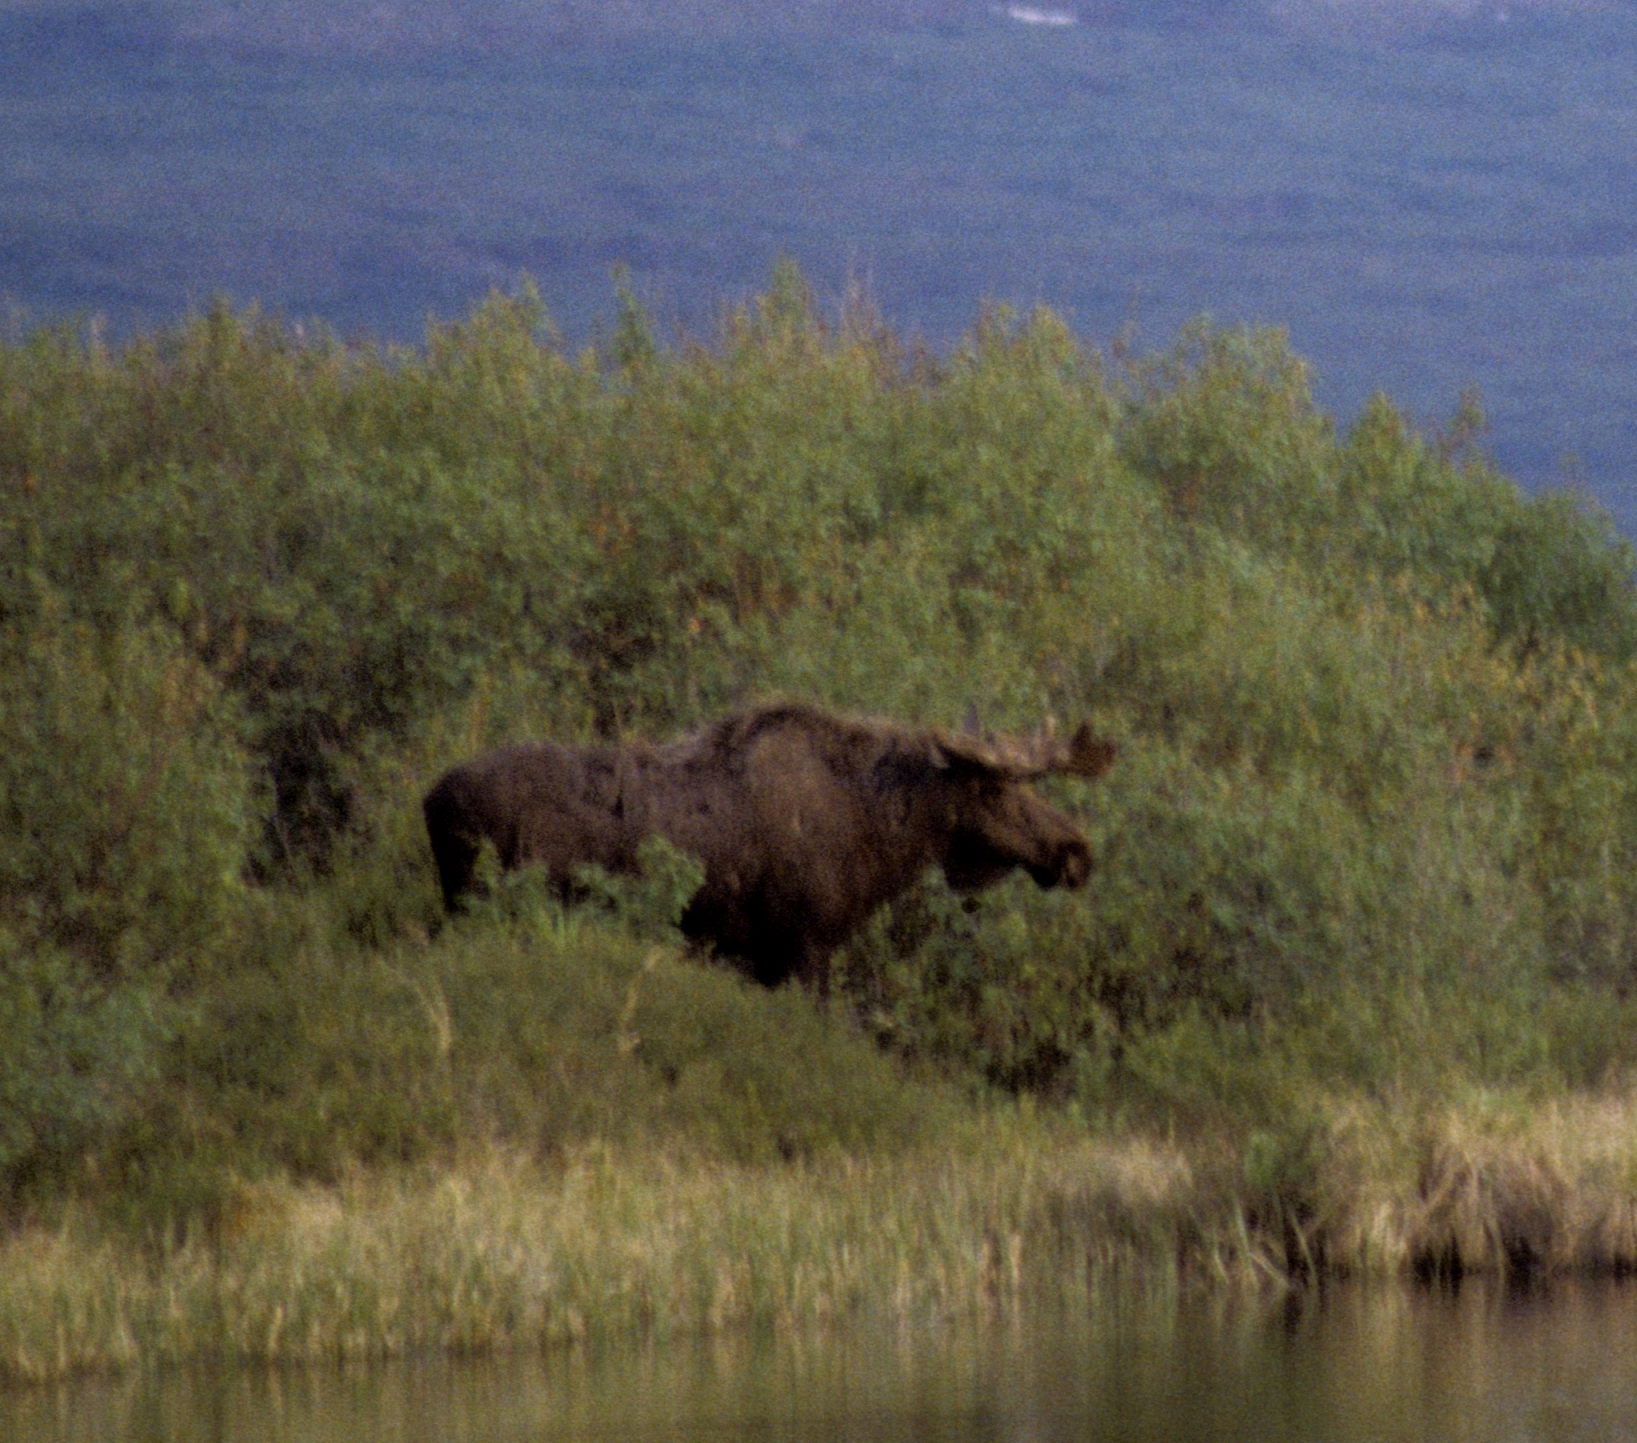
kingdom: Animalia
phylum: Chordata
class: Mammalia
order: Artiodactyla
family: Cervidae
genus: Alces
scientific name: Alces alces
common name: Moose
